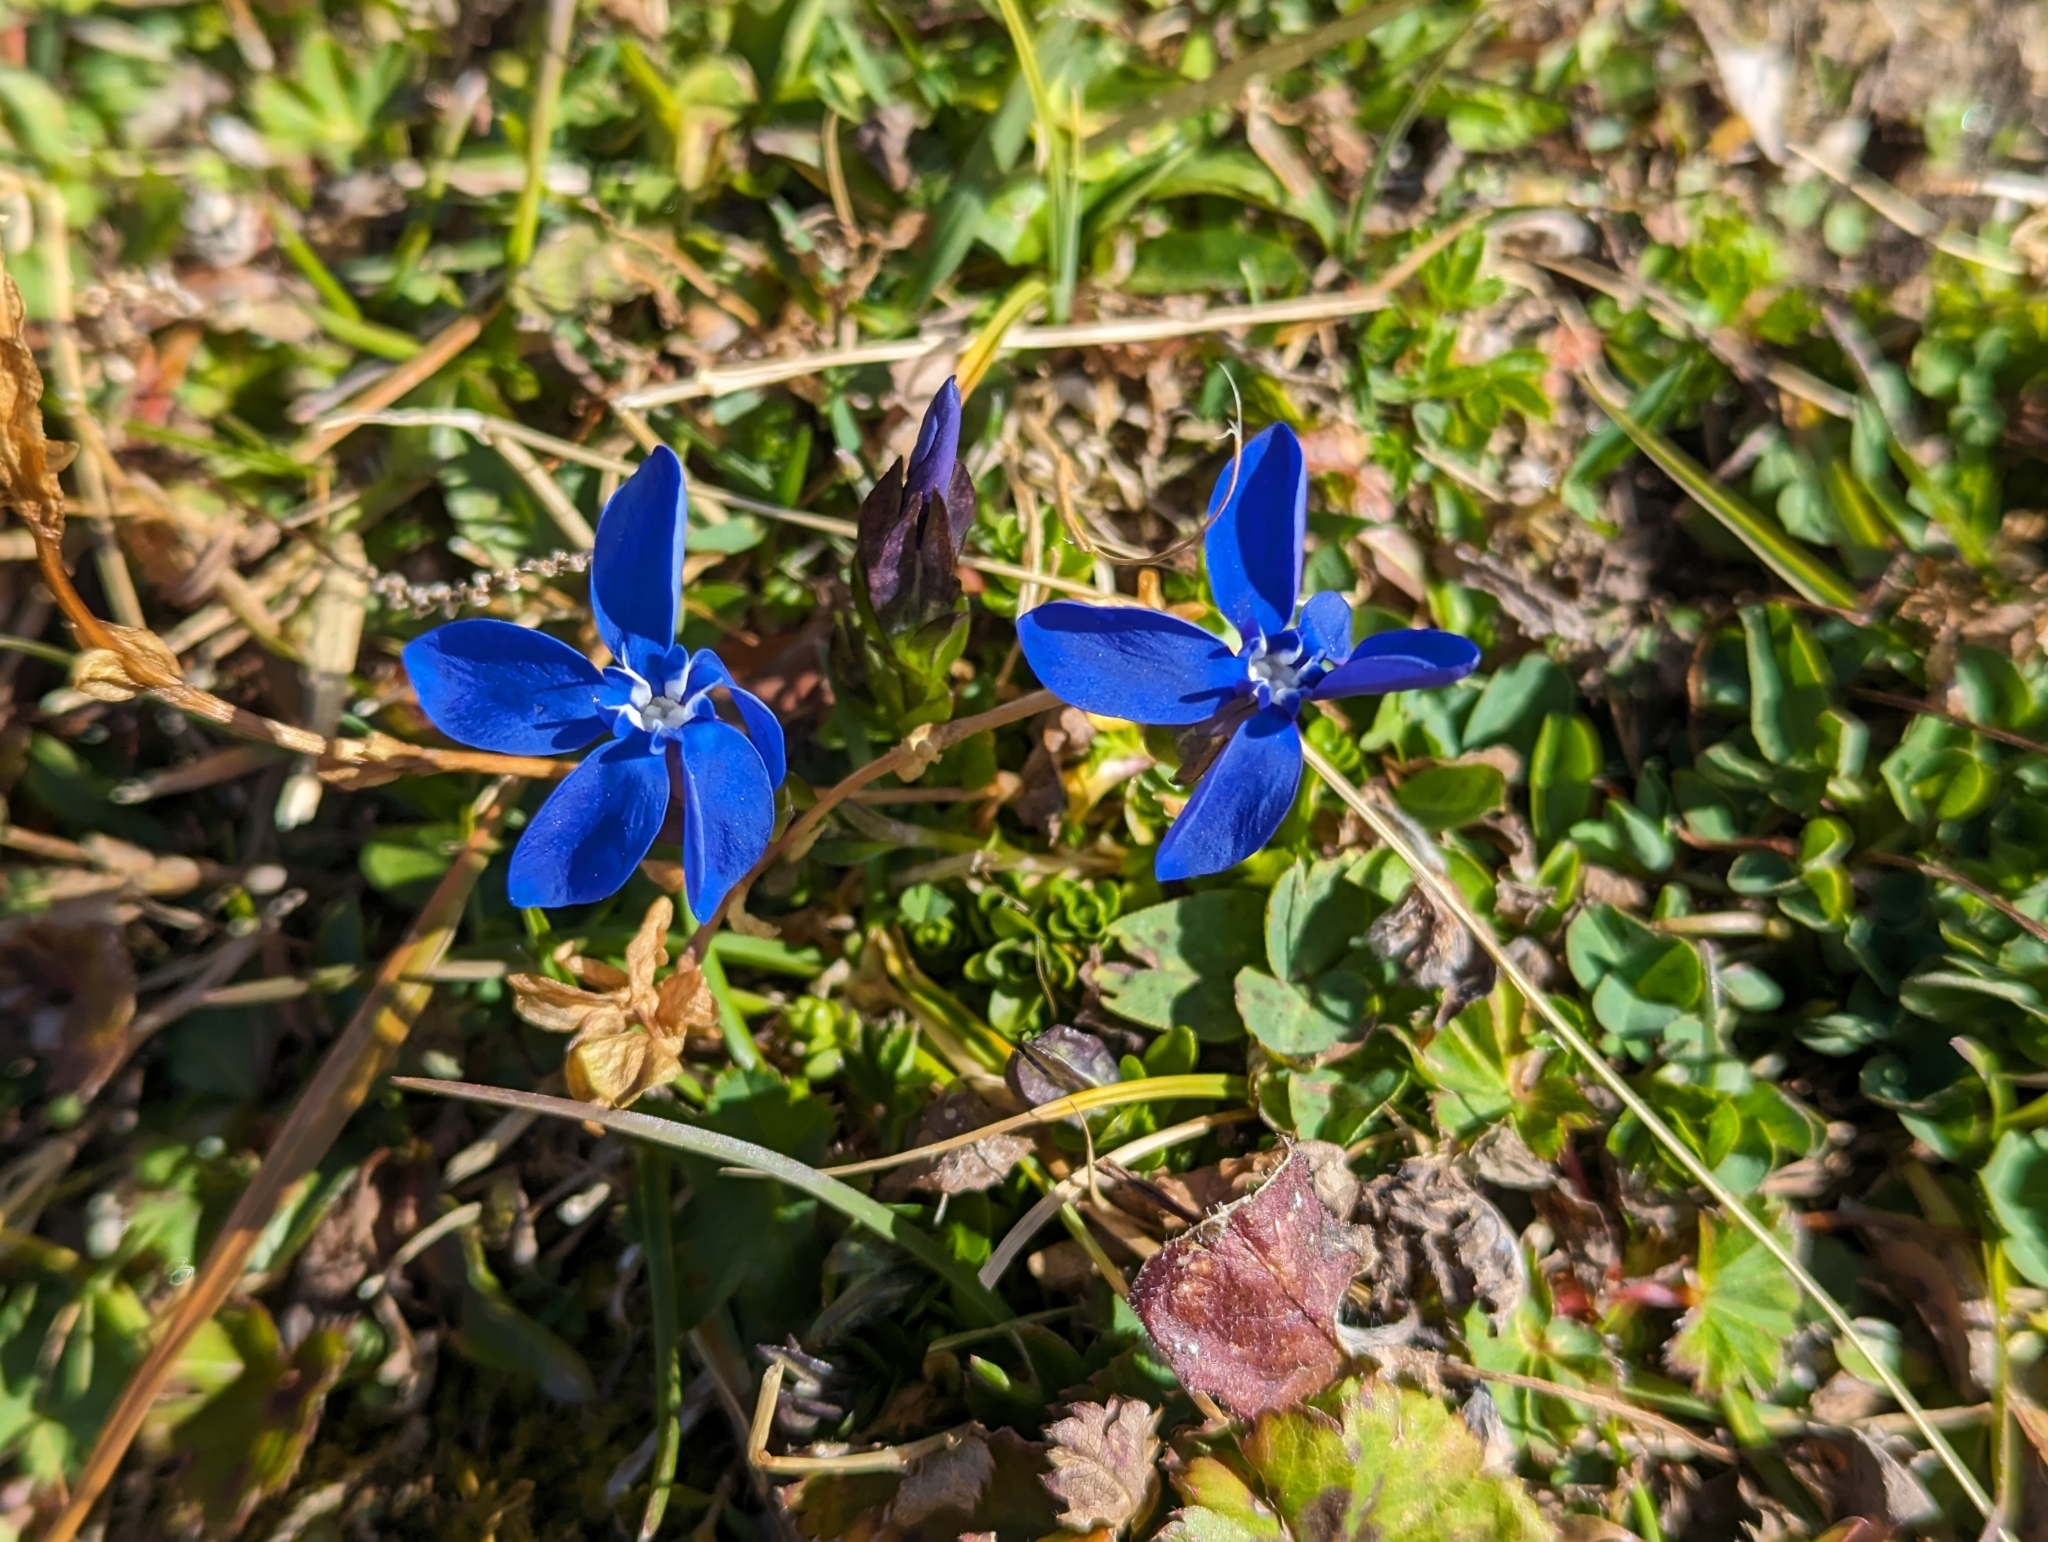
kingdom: Plantae
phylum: Tracheophyta
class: Magnoliopsida
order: Gentianales
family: Gentianaceae
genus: Gentiana
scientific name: Gentiana bavarica
